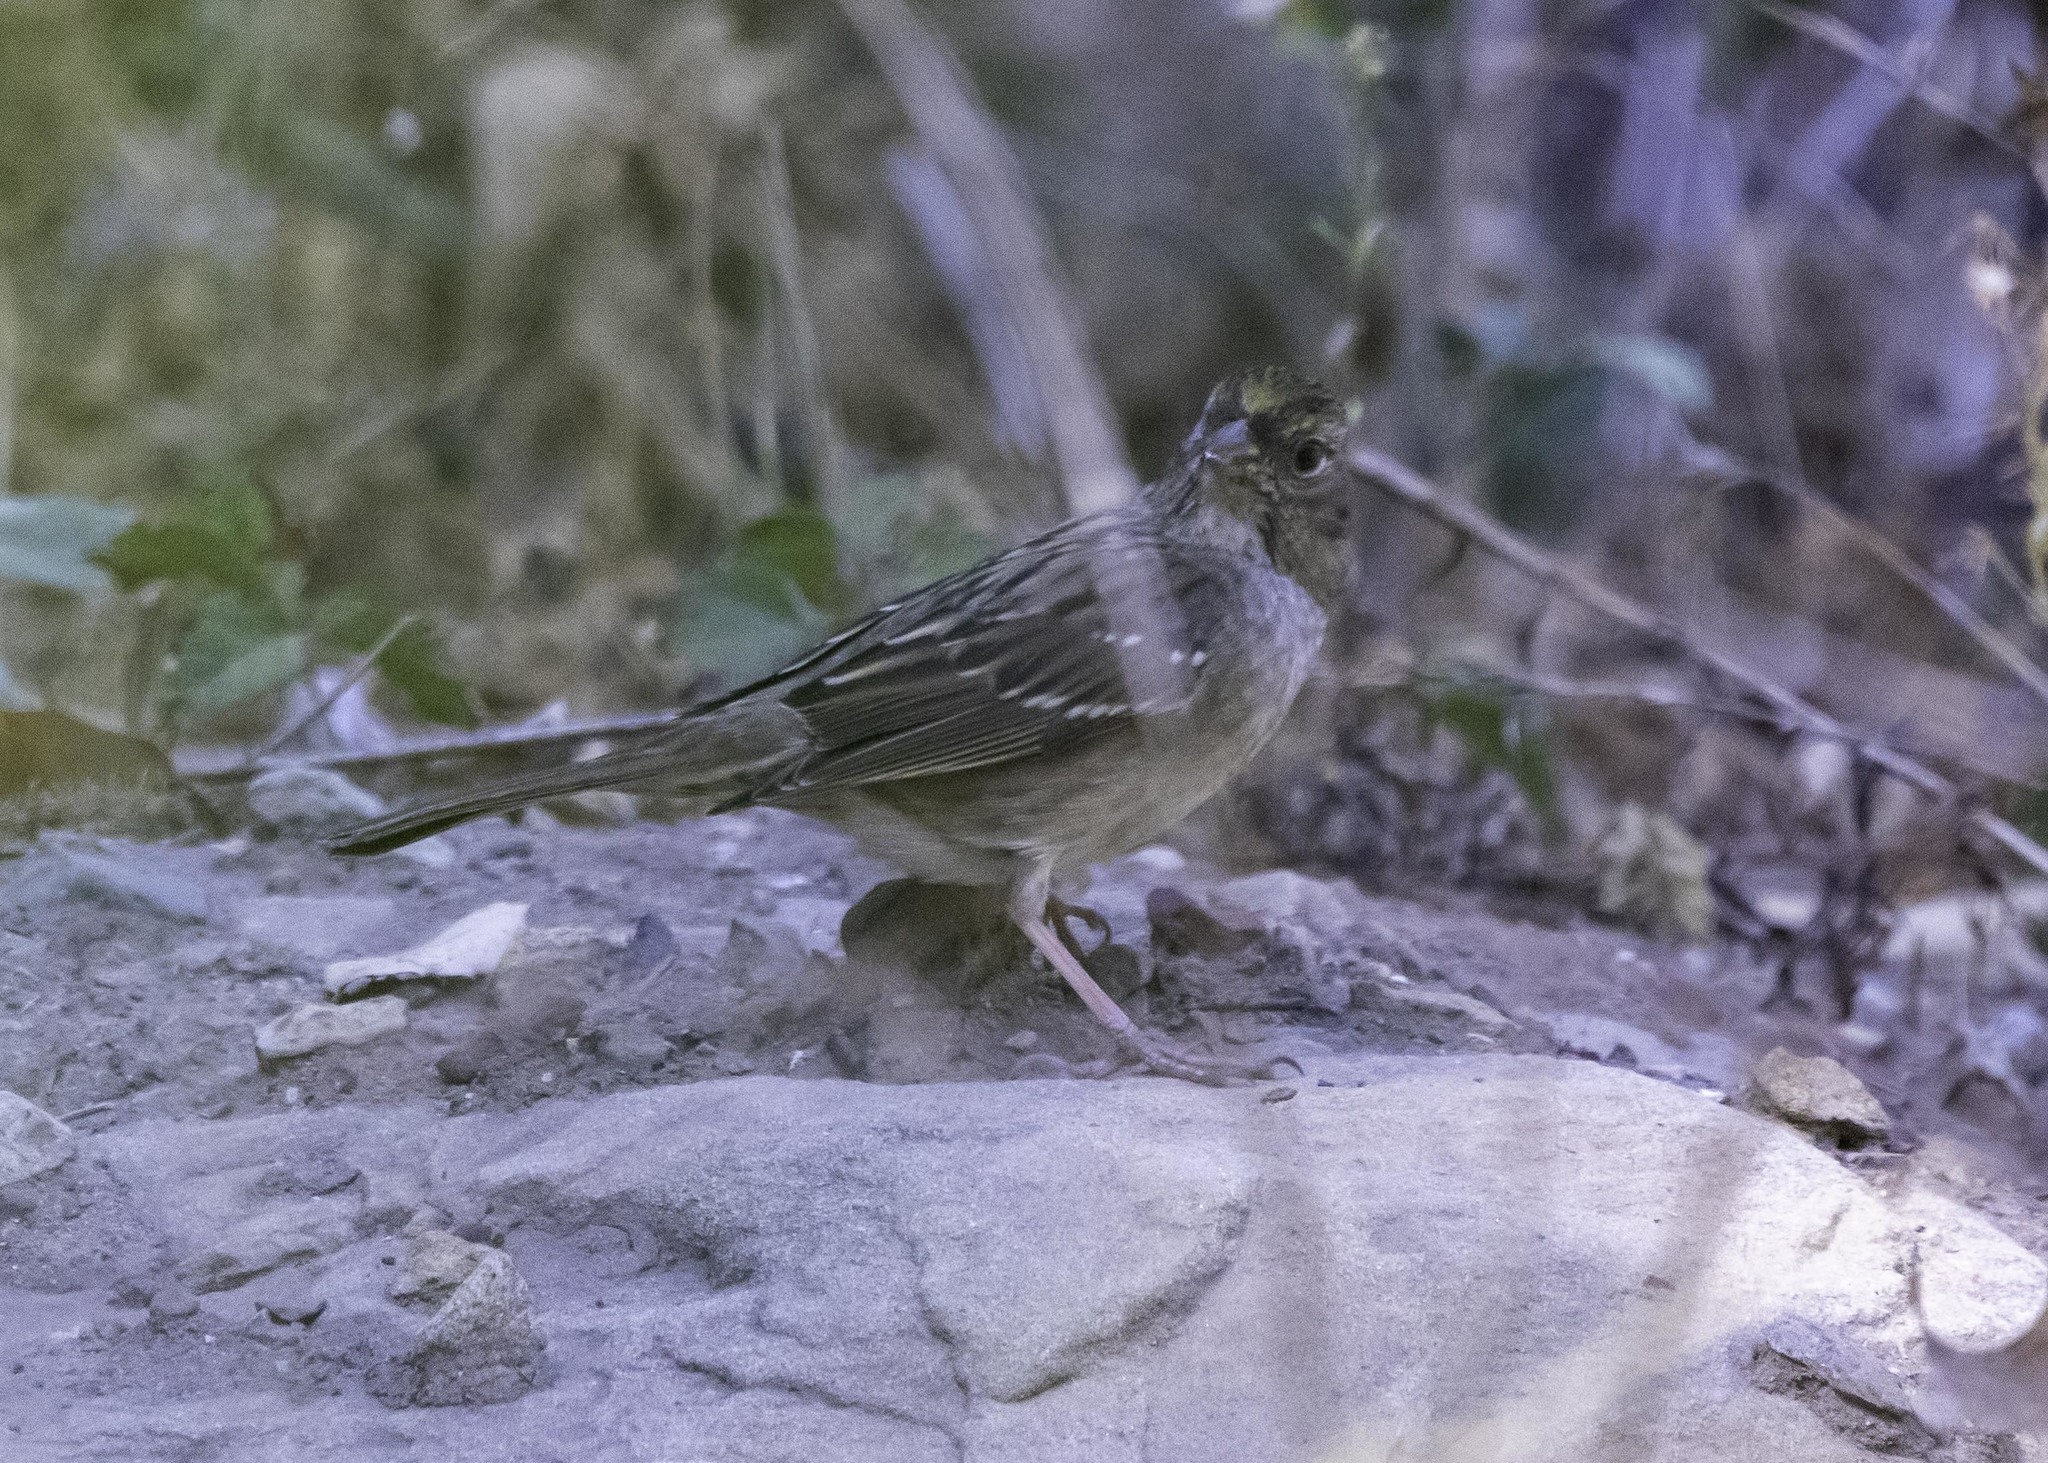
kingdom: Animalia
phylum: Chordata
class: Aves
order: Passeriformes
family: Passerellidae
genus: Zonotrichia
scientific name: Zonotrichia atricapilla
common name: Golden-crowned sparrow
